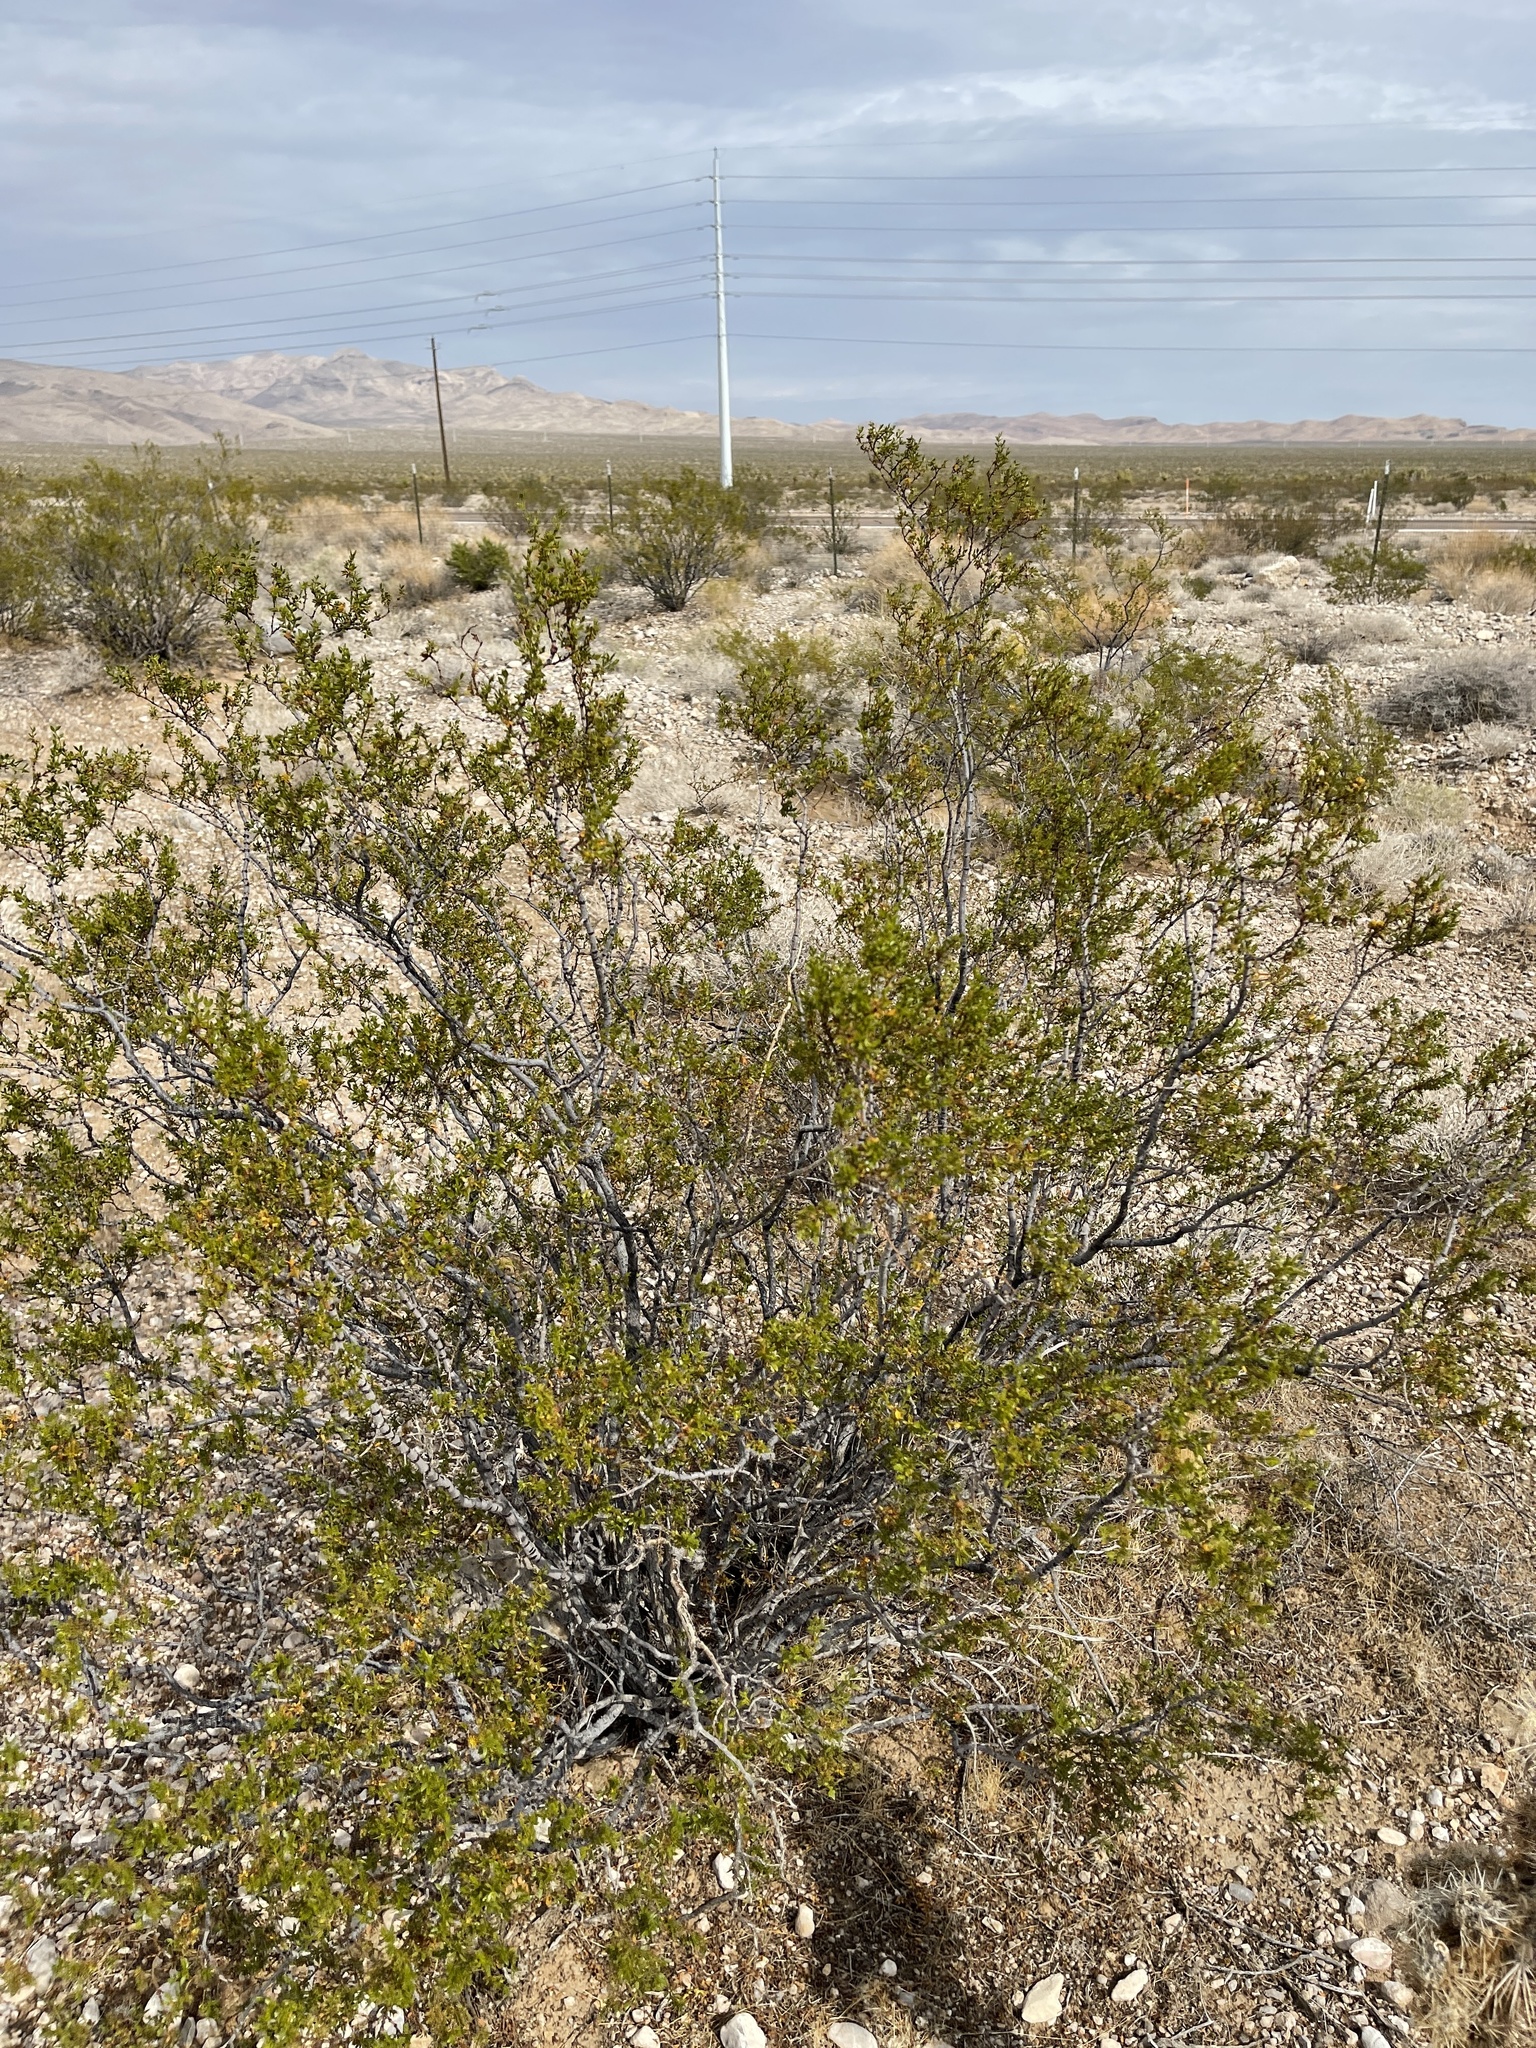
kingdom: Plantae
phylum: Tracheophyta
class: Magnoliopsida
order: Zygophyllales
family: Zygophyllaceae
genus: Larrea
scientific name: Larrea tridentata
